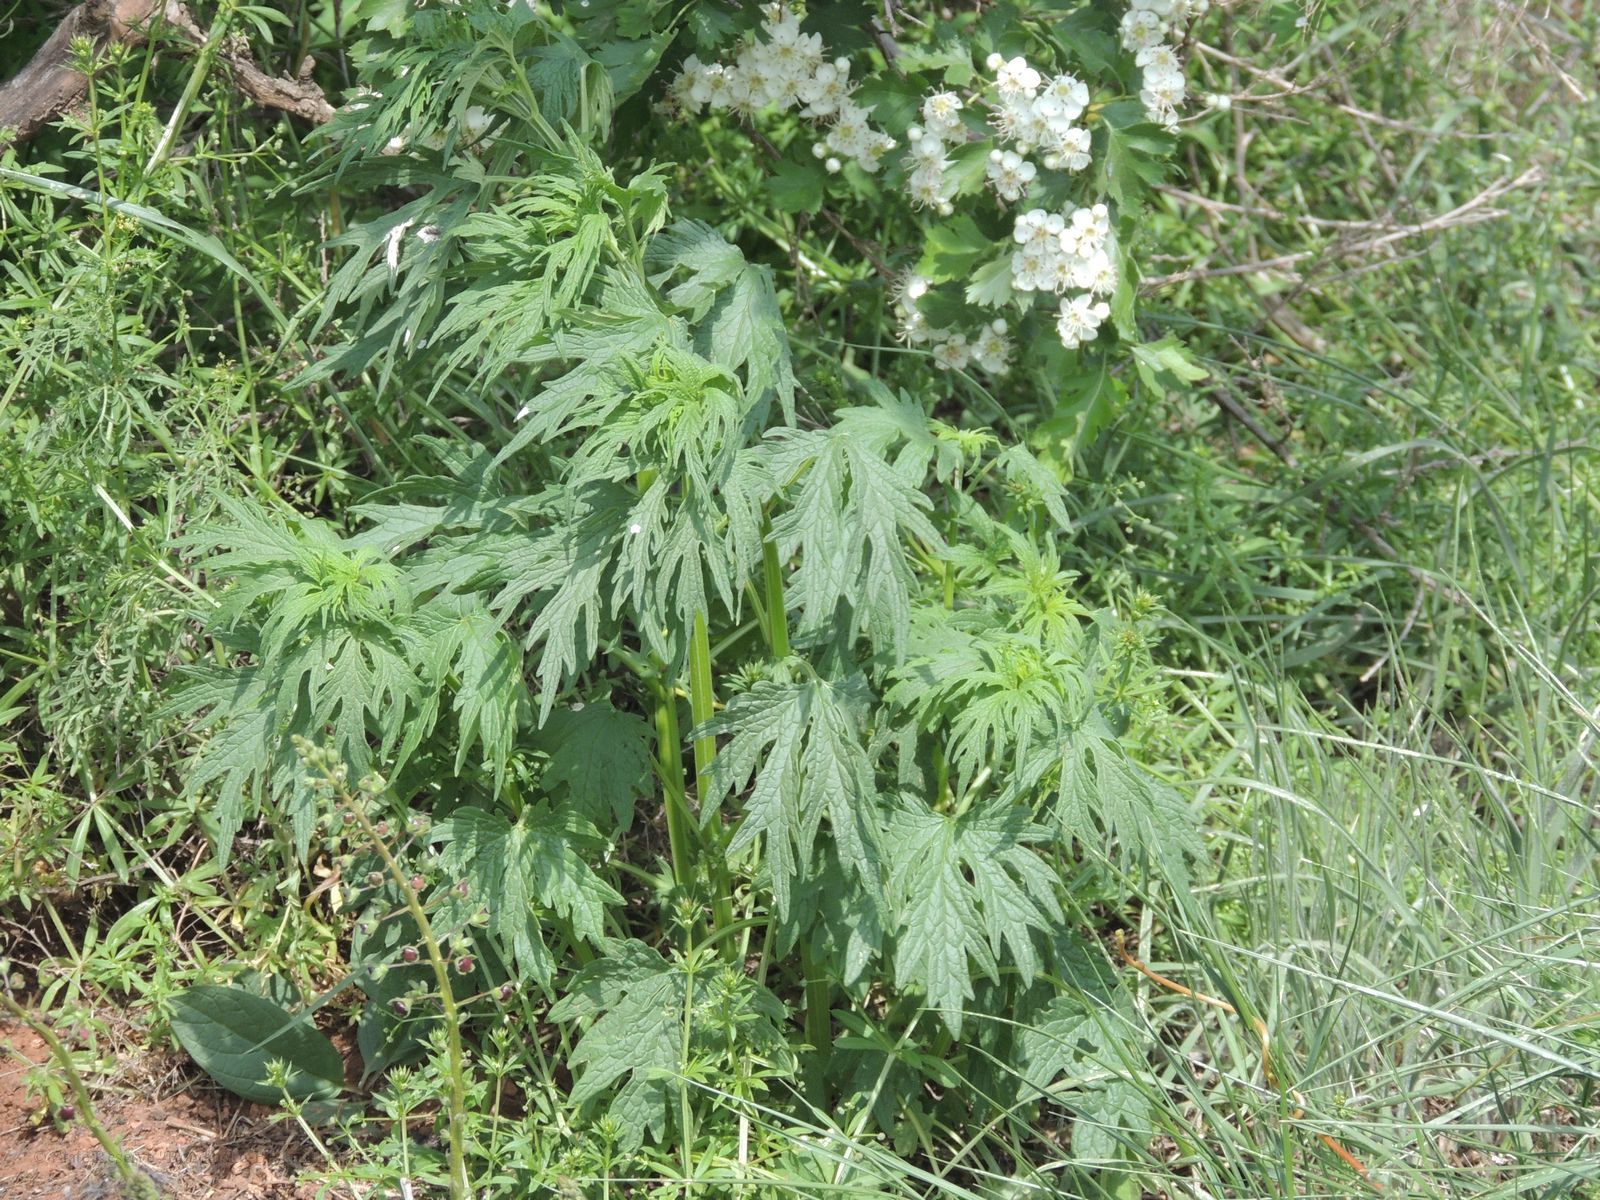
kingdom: Plantae
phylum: Tracheophyta
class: Magnoliopsida
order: Lamiales
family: Lamiaceae
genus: Leonurus
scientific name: Leonurus glaucescens
